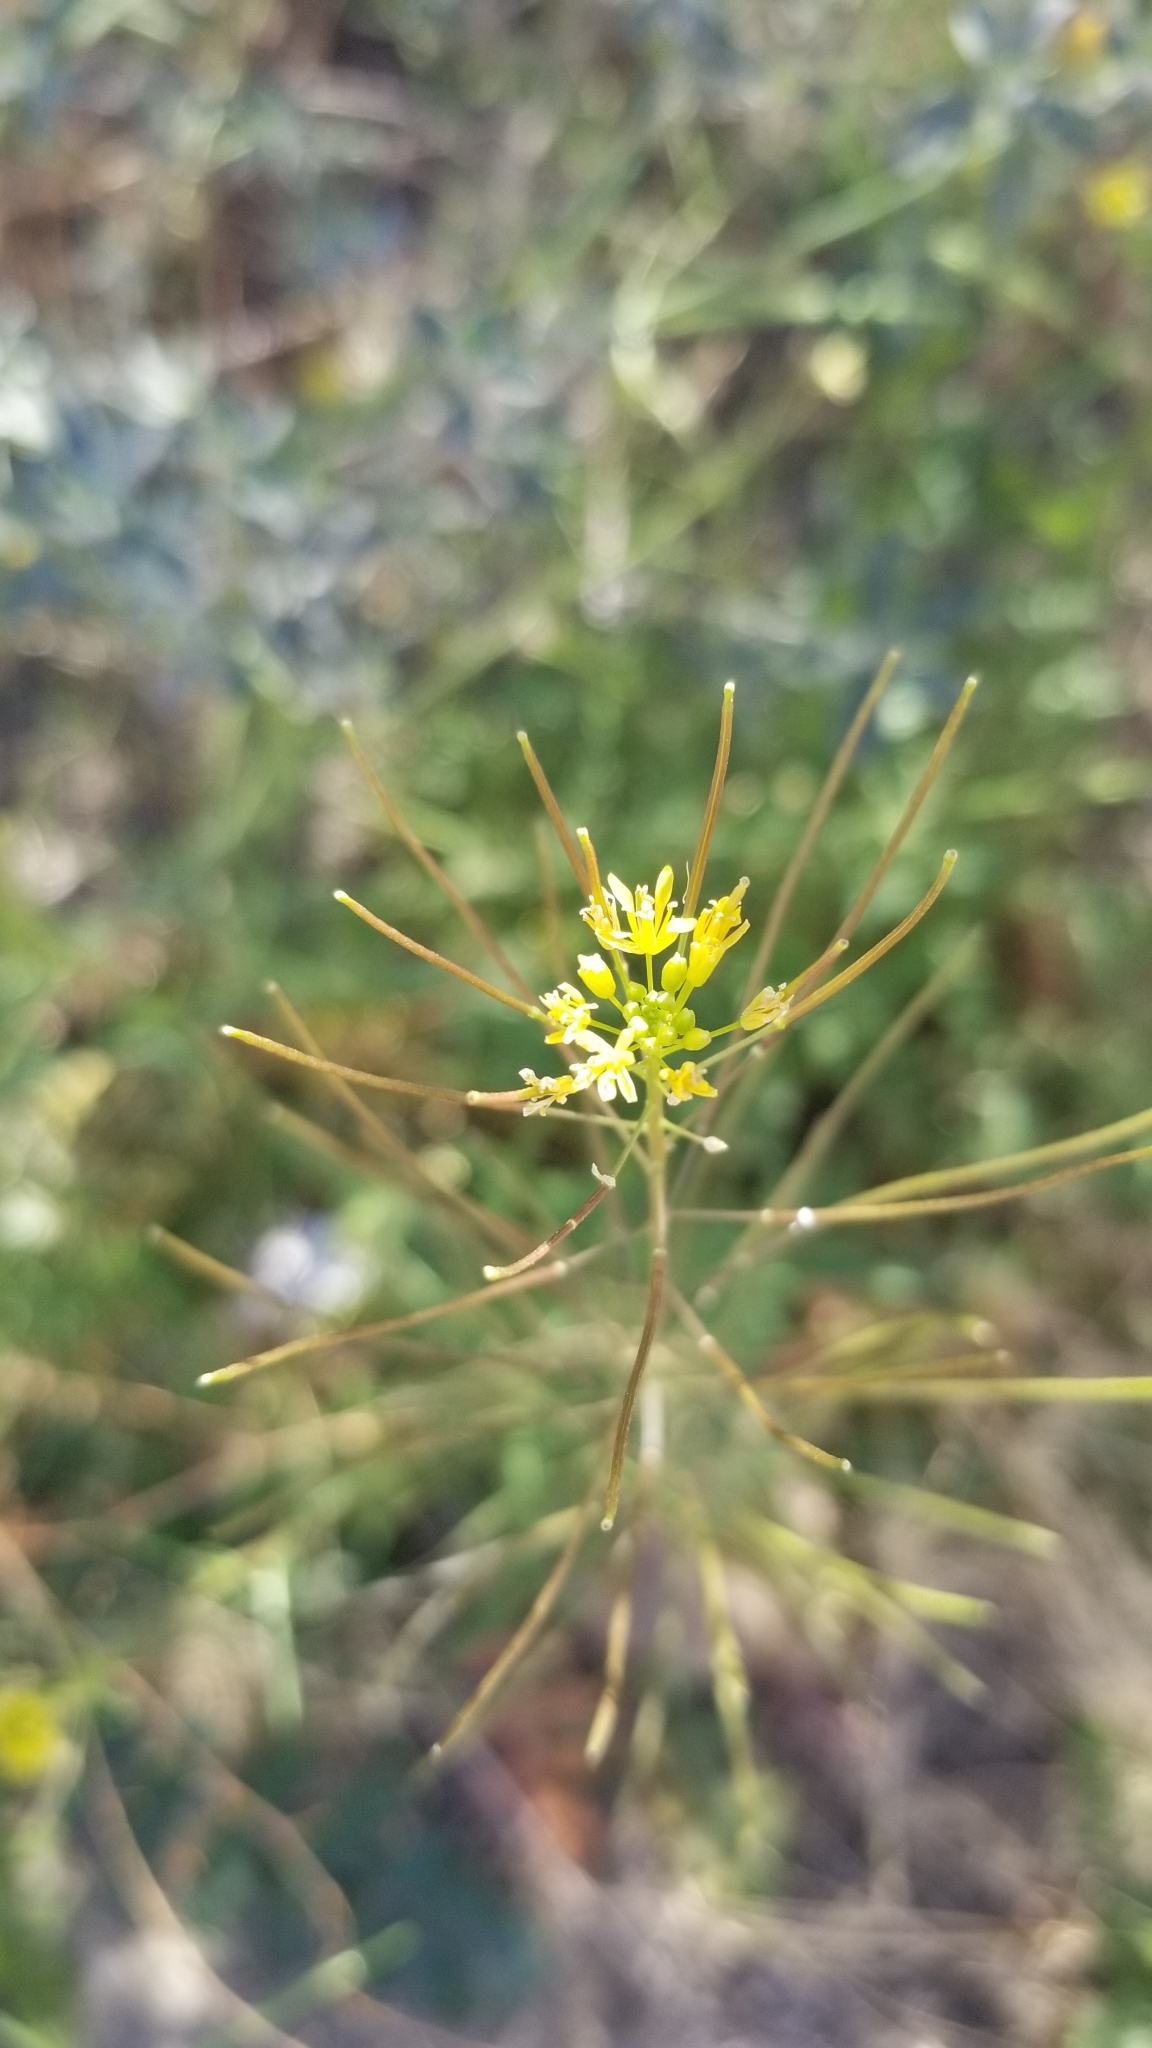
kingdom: Plantae
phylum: Tracheophyta
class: Magnoliopsida
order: Brassicales
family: Brassicaceae
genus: Sisymbrium
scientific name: Sisymbrium irio
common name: London rocket
